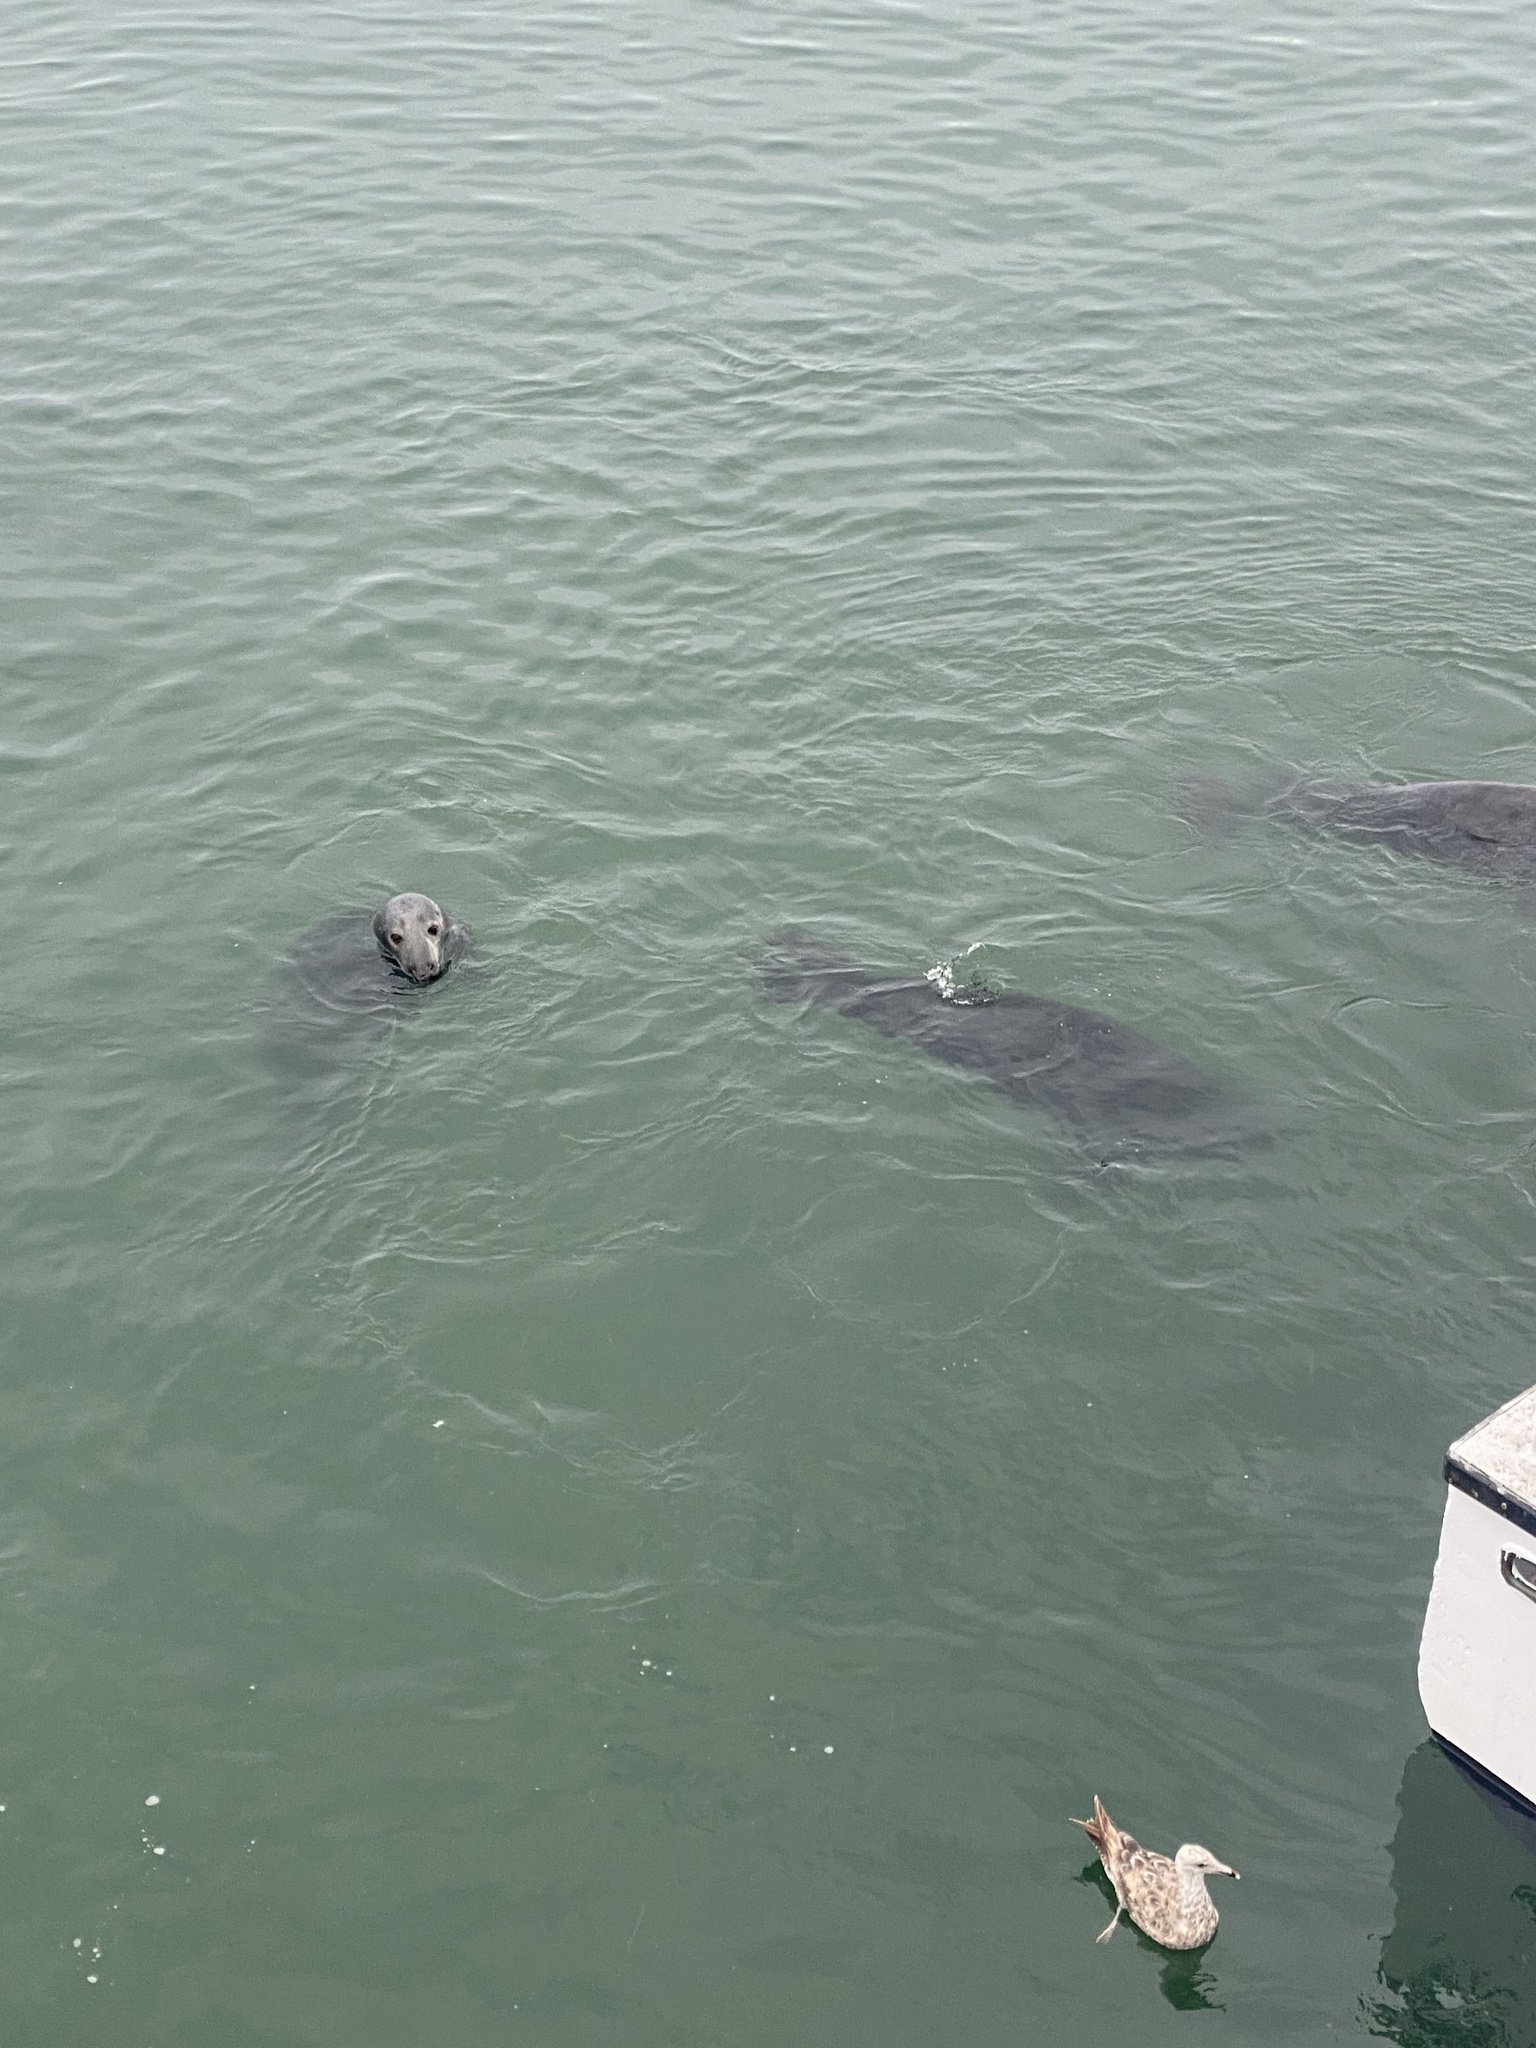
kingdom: Animalia
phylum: Chordata
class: Mammalia
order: Carnivora
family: Phocidae
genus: Halichoerus
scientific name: Halichoerus grypus
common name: Grey seal
